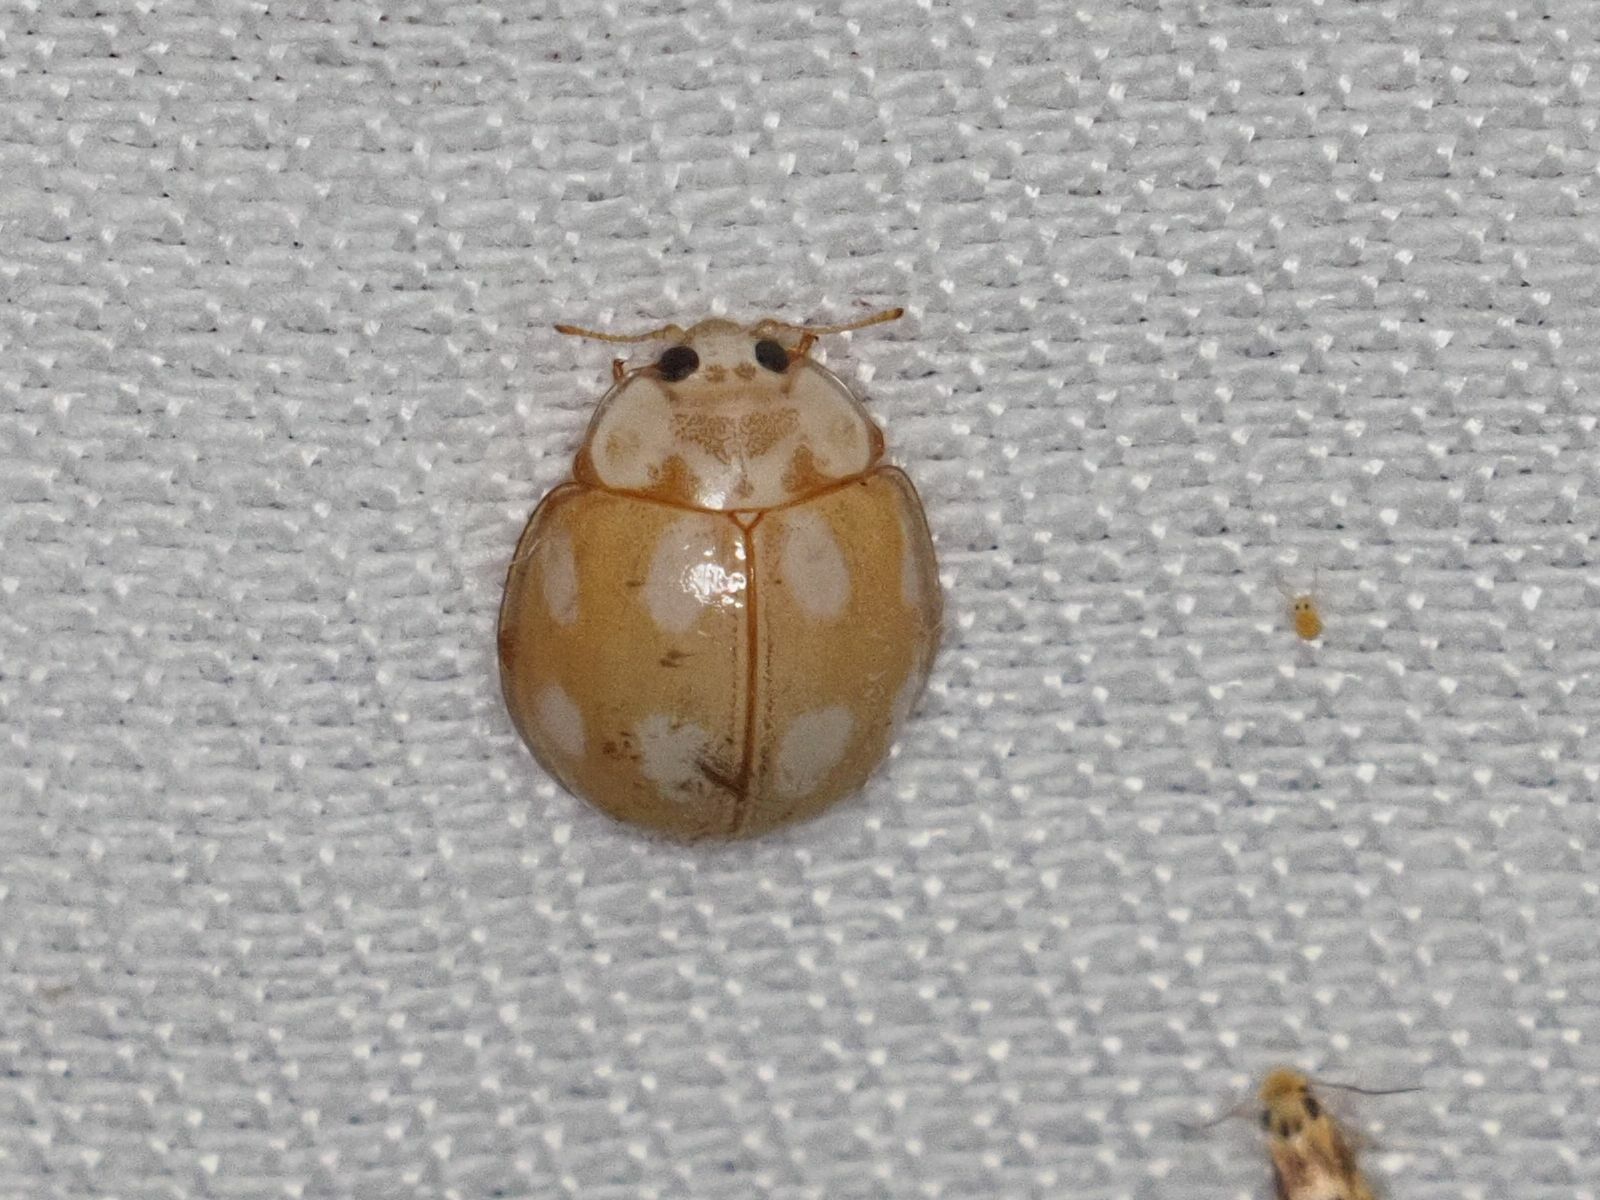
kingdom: Animalia
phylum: Arthropoda
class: Insecta
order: Coleoptera
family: Coccinellidae
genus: Calvia
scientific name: Calvia decemguttata
